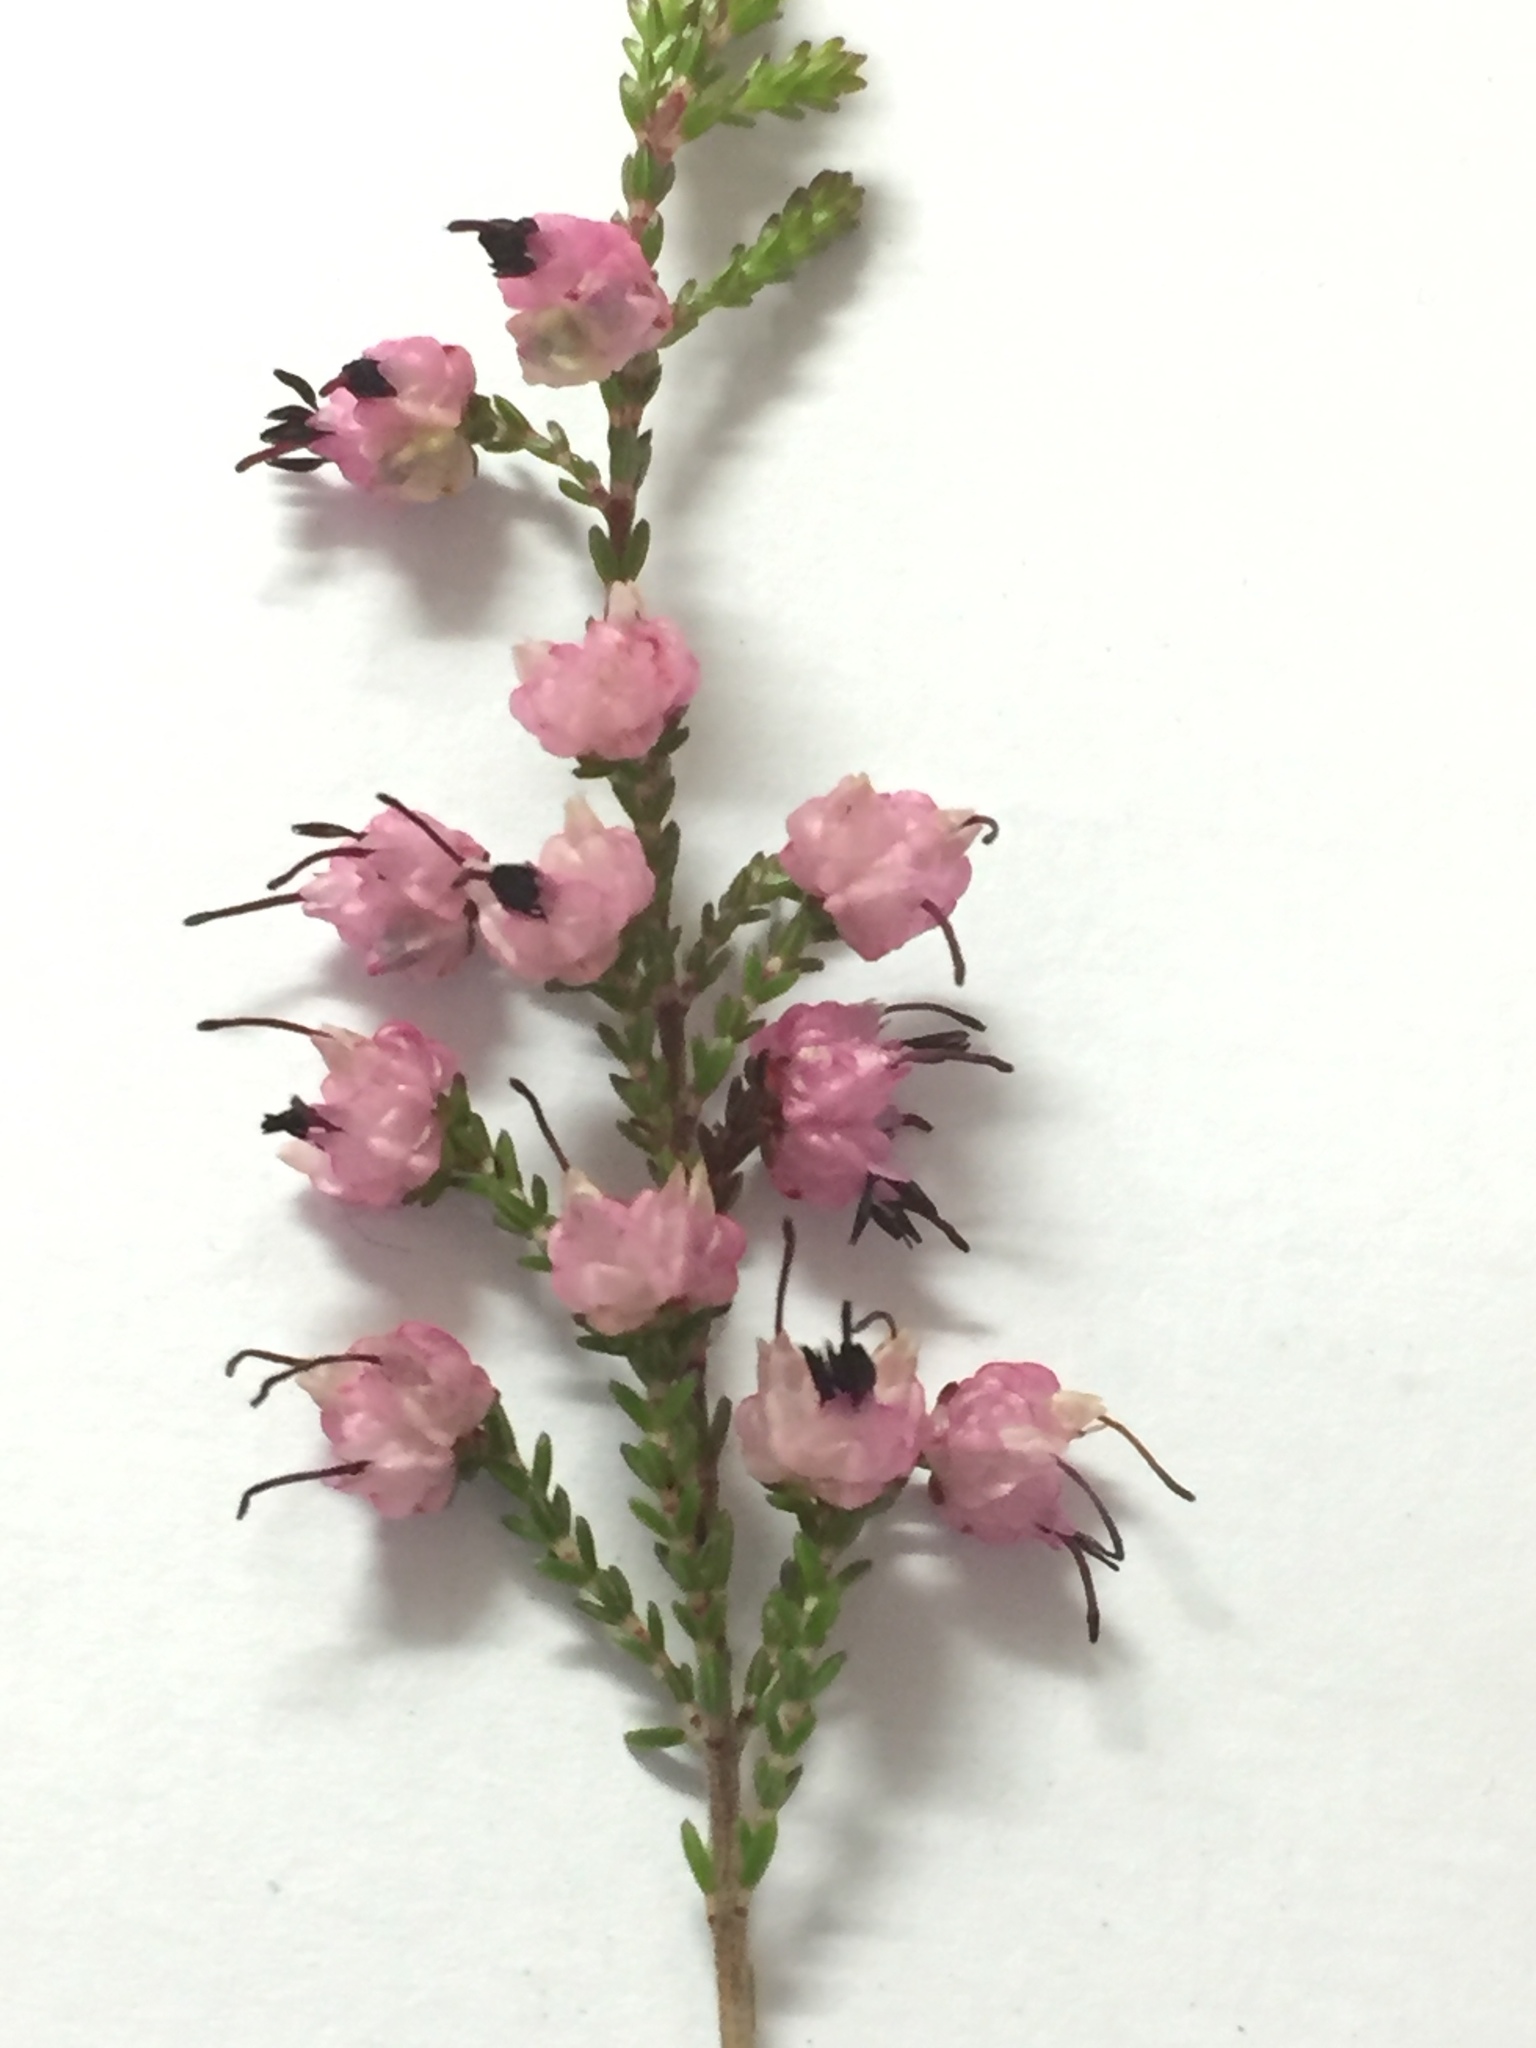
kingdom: Plantae
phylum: Tracheophyta
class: Magnoliopsida
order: Ericales
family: Ericaceae
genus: Erica
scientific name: Erica spumosa
